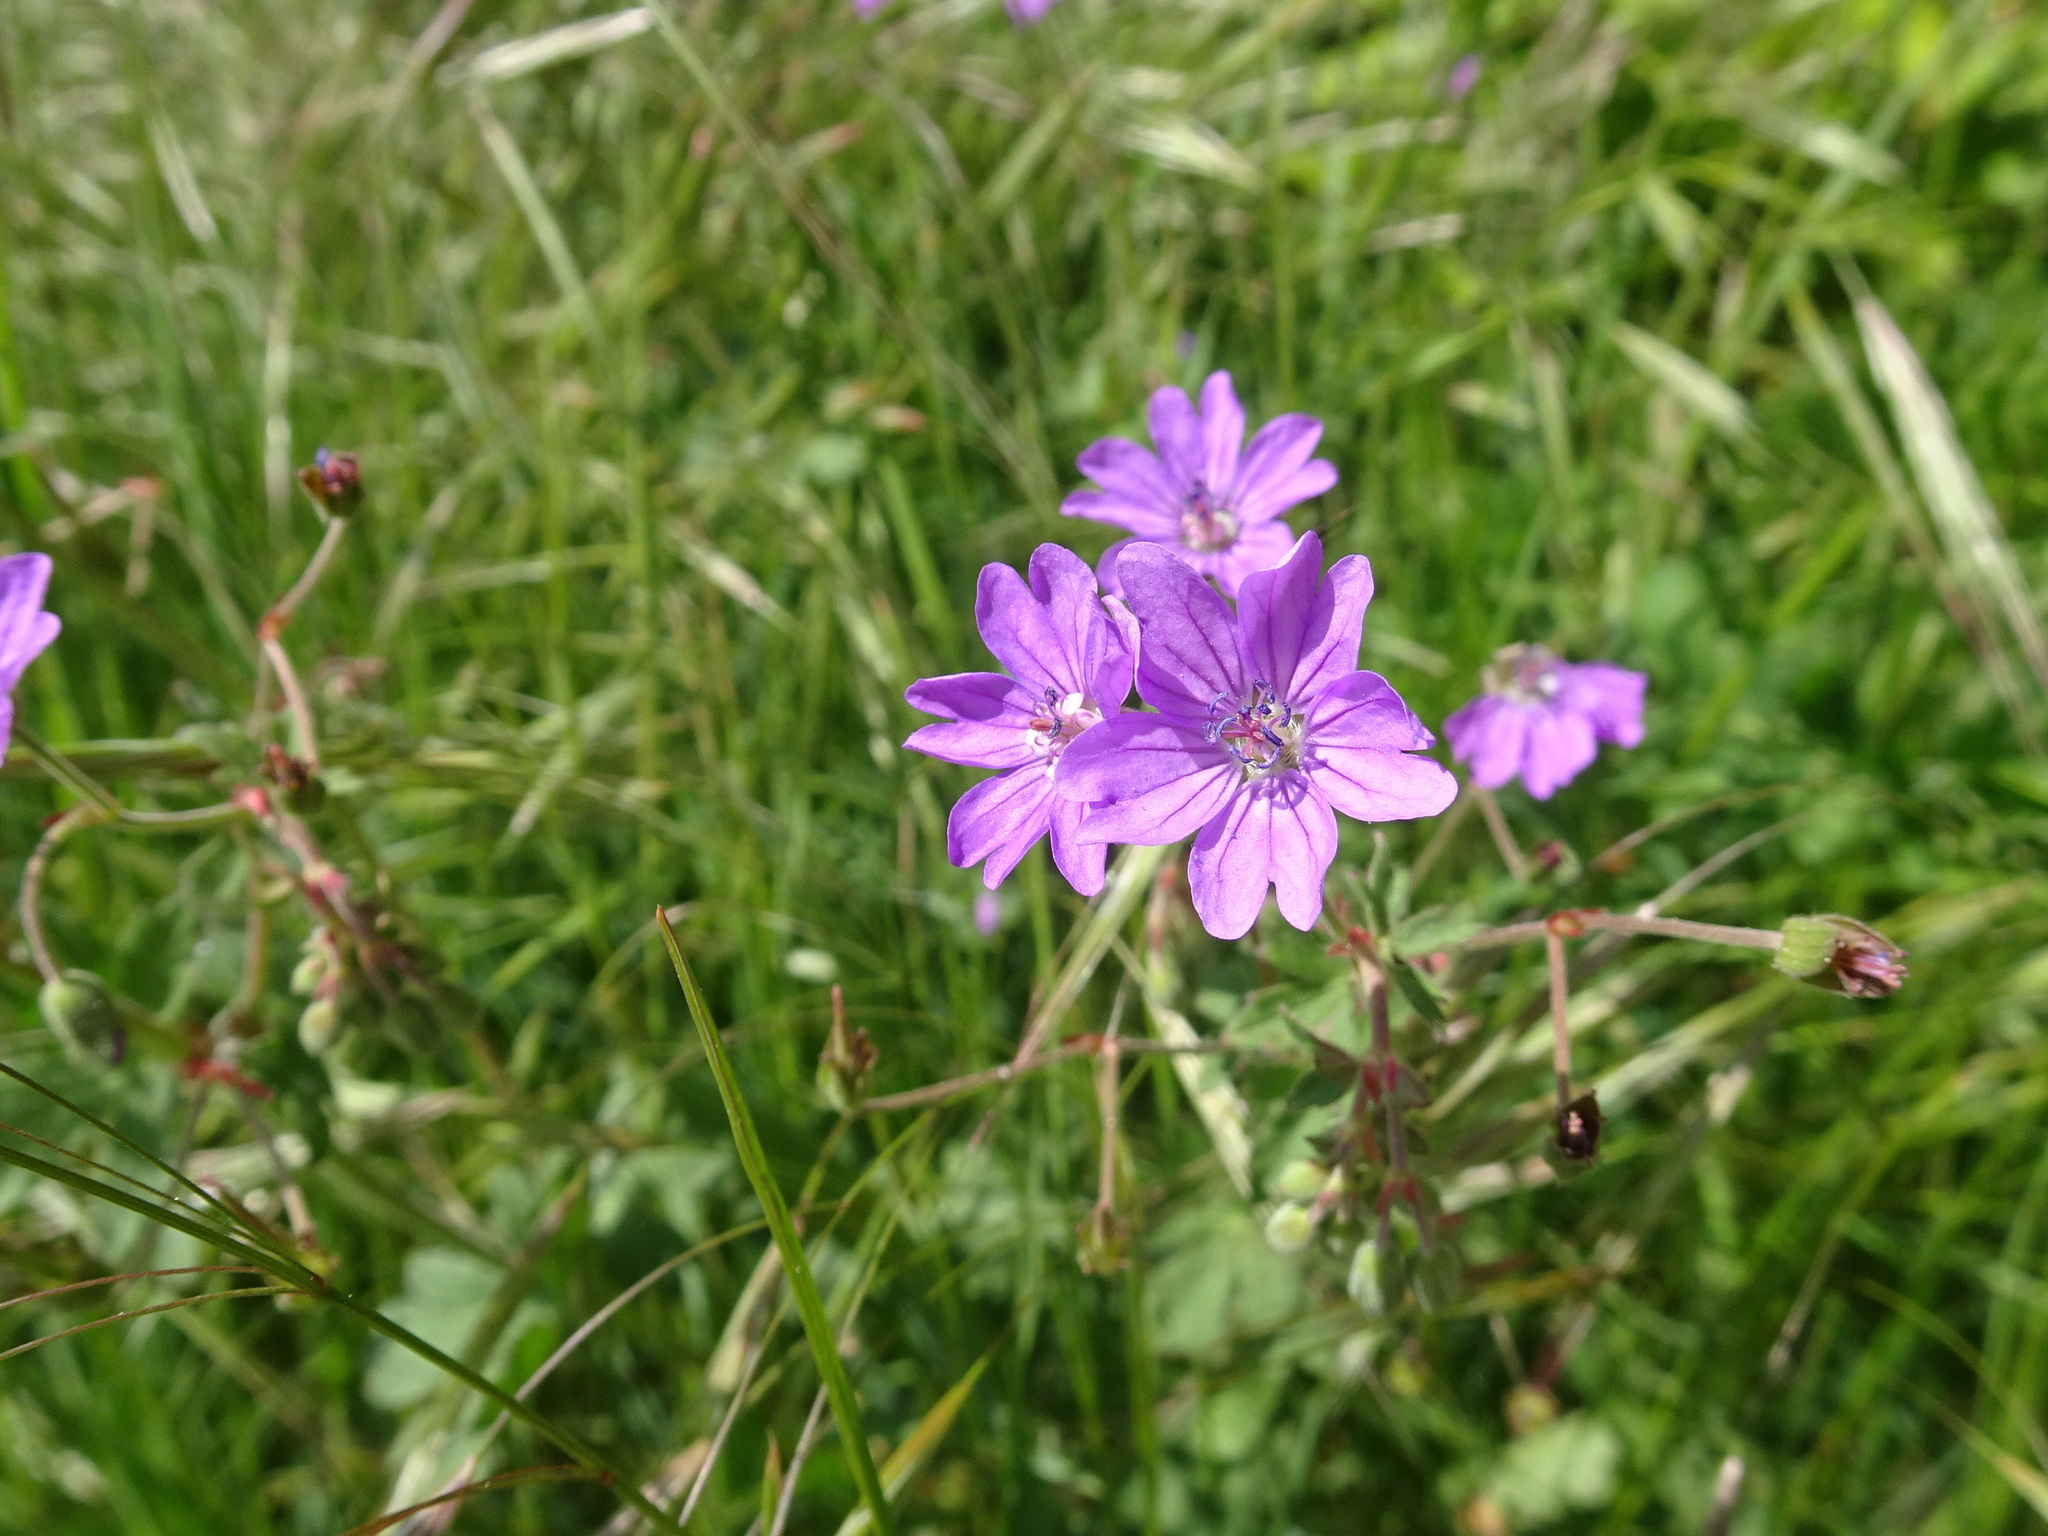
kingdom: Plantae
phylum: Tracheophyta
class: Magnoliopsida
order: Geraniales
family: Geraniaceae
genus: Geranium
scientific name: Geranium pyrenaicum
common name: Hedgerow crane's-bill
